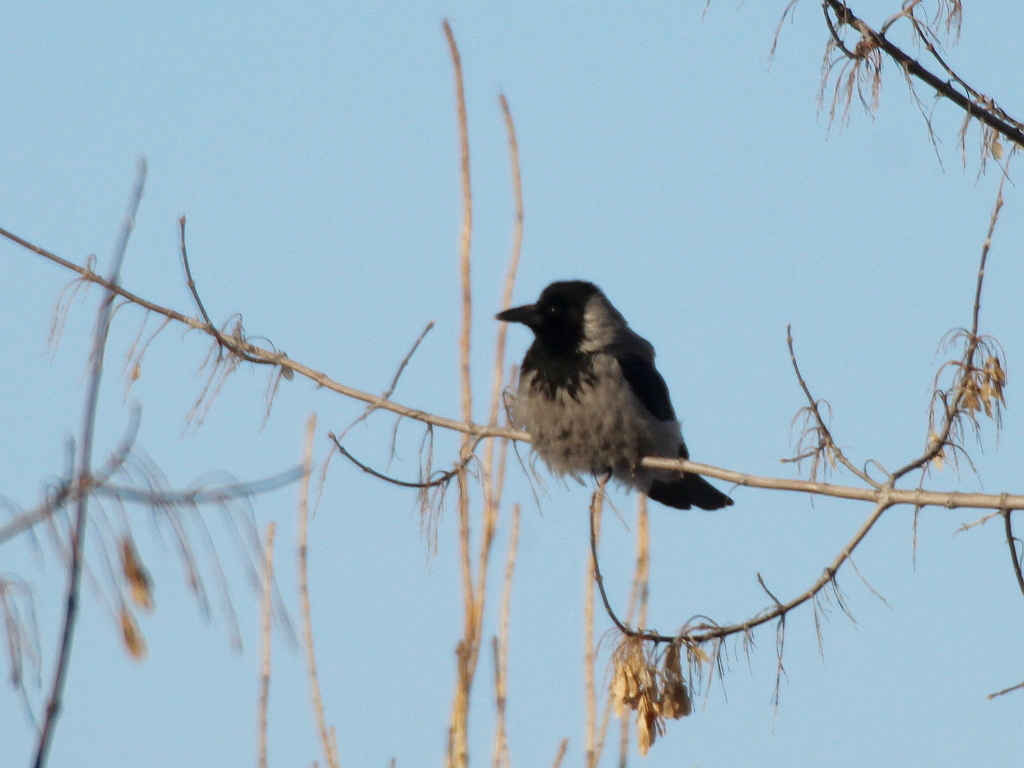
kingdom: Animalia
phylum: Chordata
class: Aves
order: Passeriformes
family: Corvidae
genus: Corvus
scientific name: Corvus cornix
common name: Hooded crow
